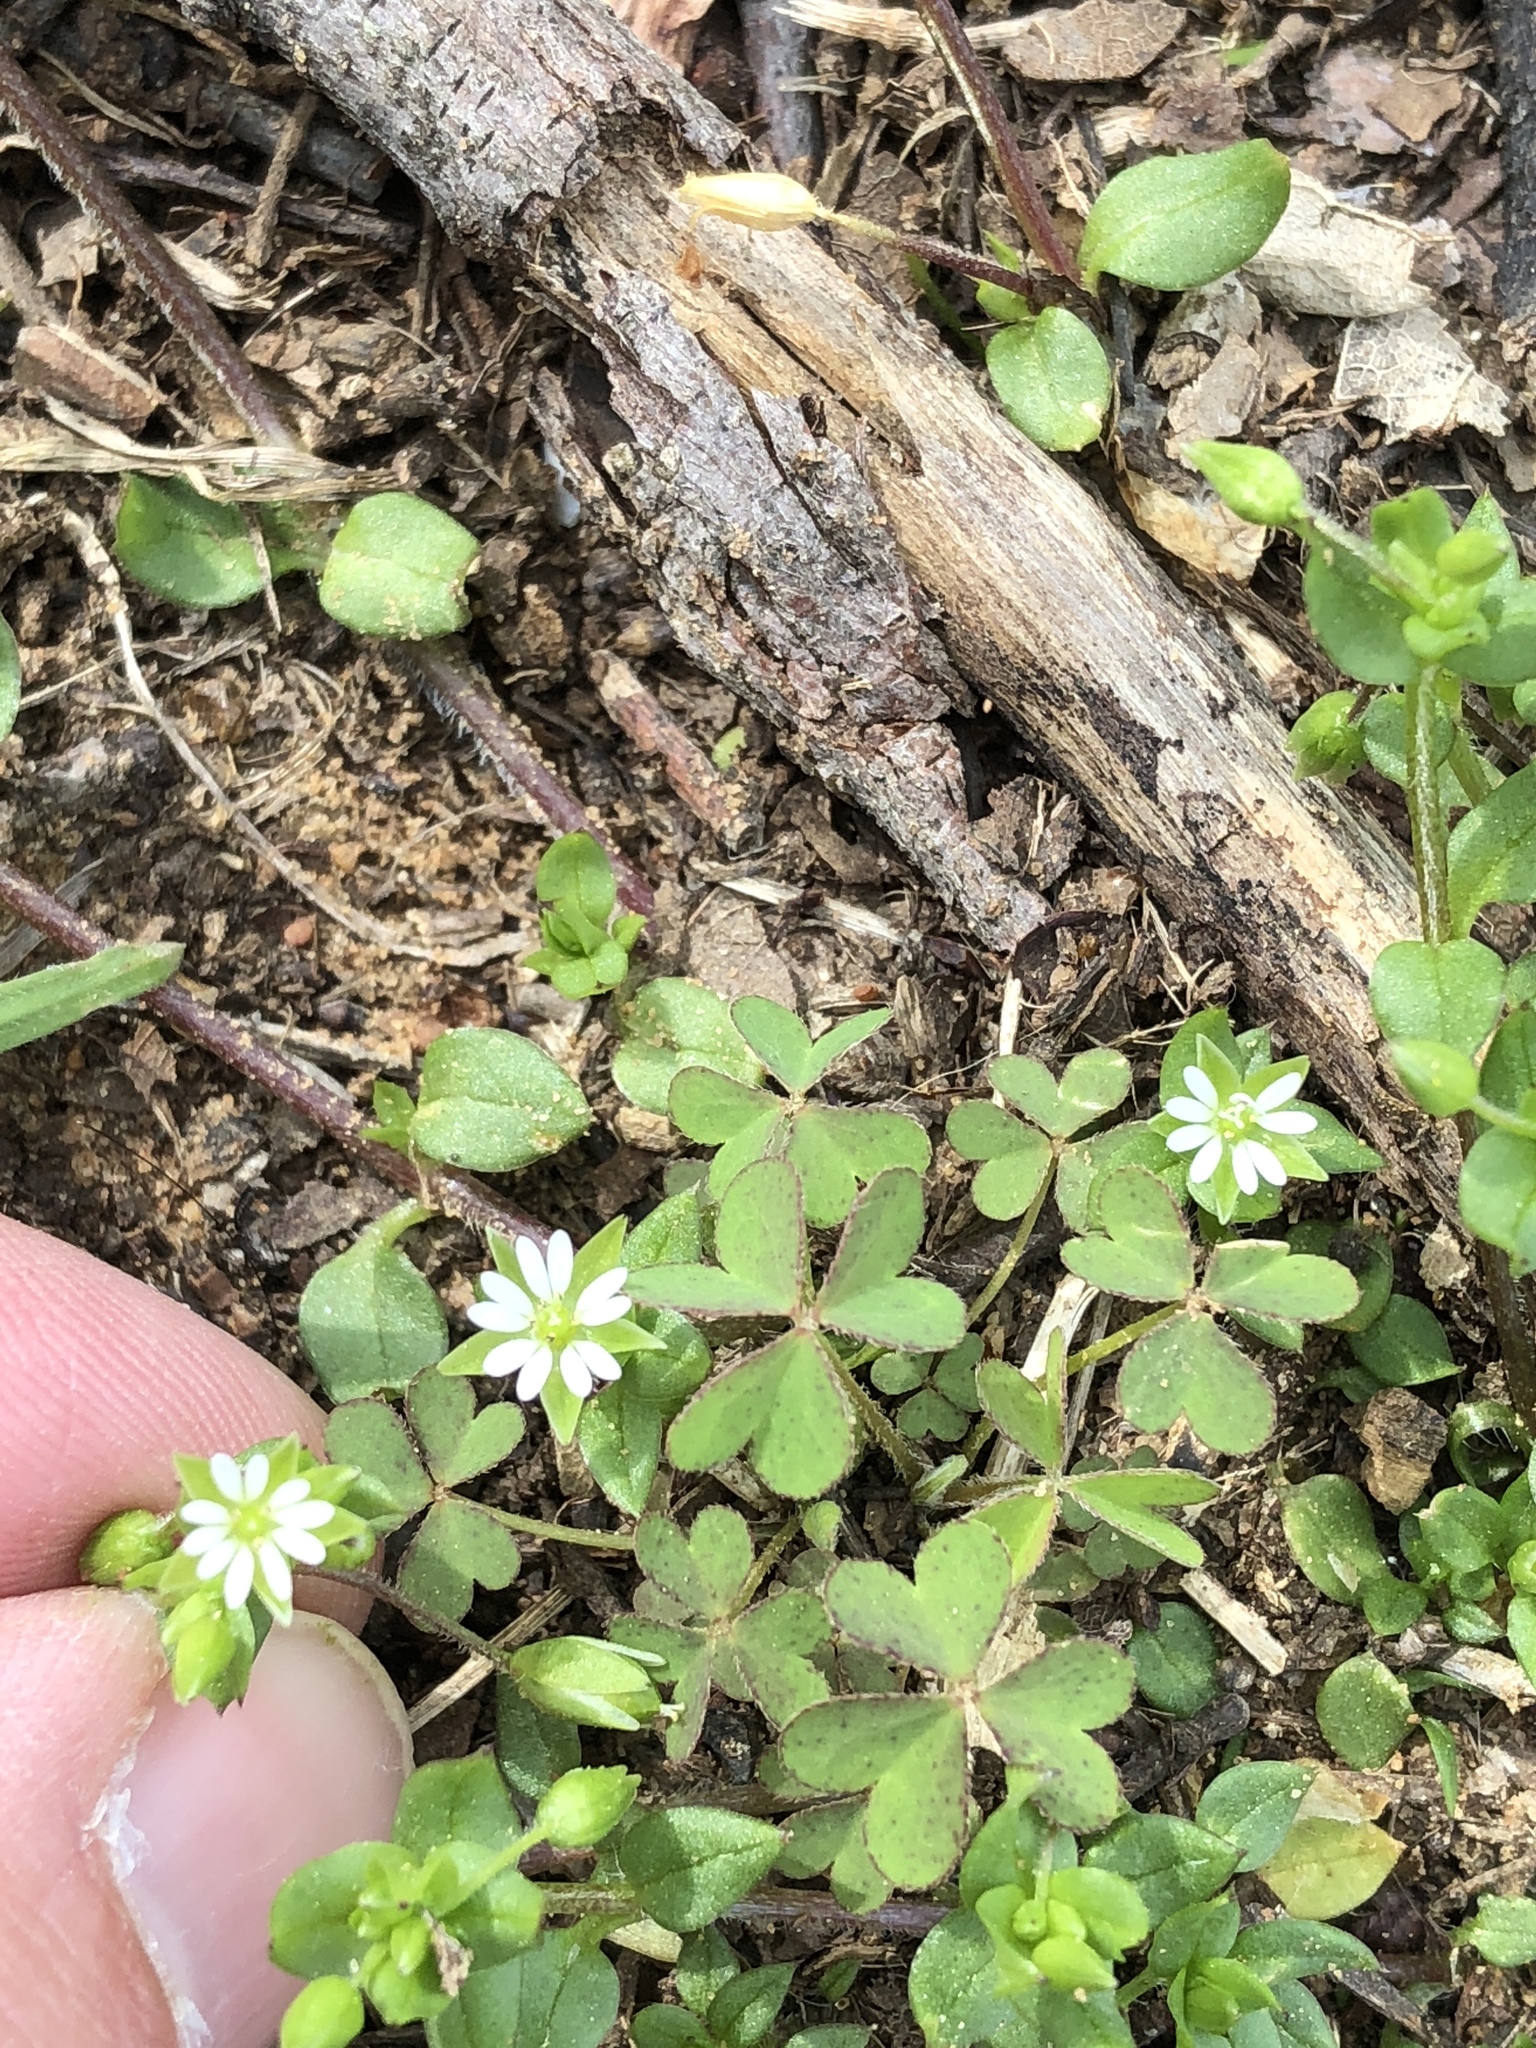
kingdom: Plantae
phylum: Tracheophyta
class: Magnoliopsida
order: Caryophyllales
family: Caryophyllaceae
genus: Stellaria
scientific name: Stellaria media
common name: Common chickweed
